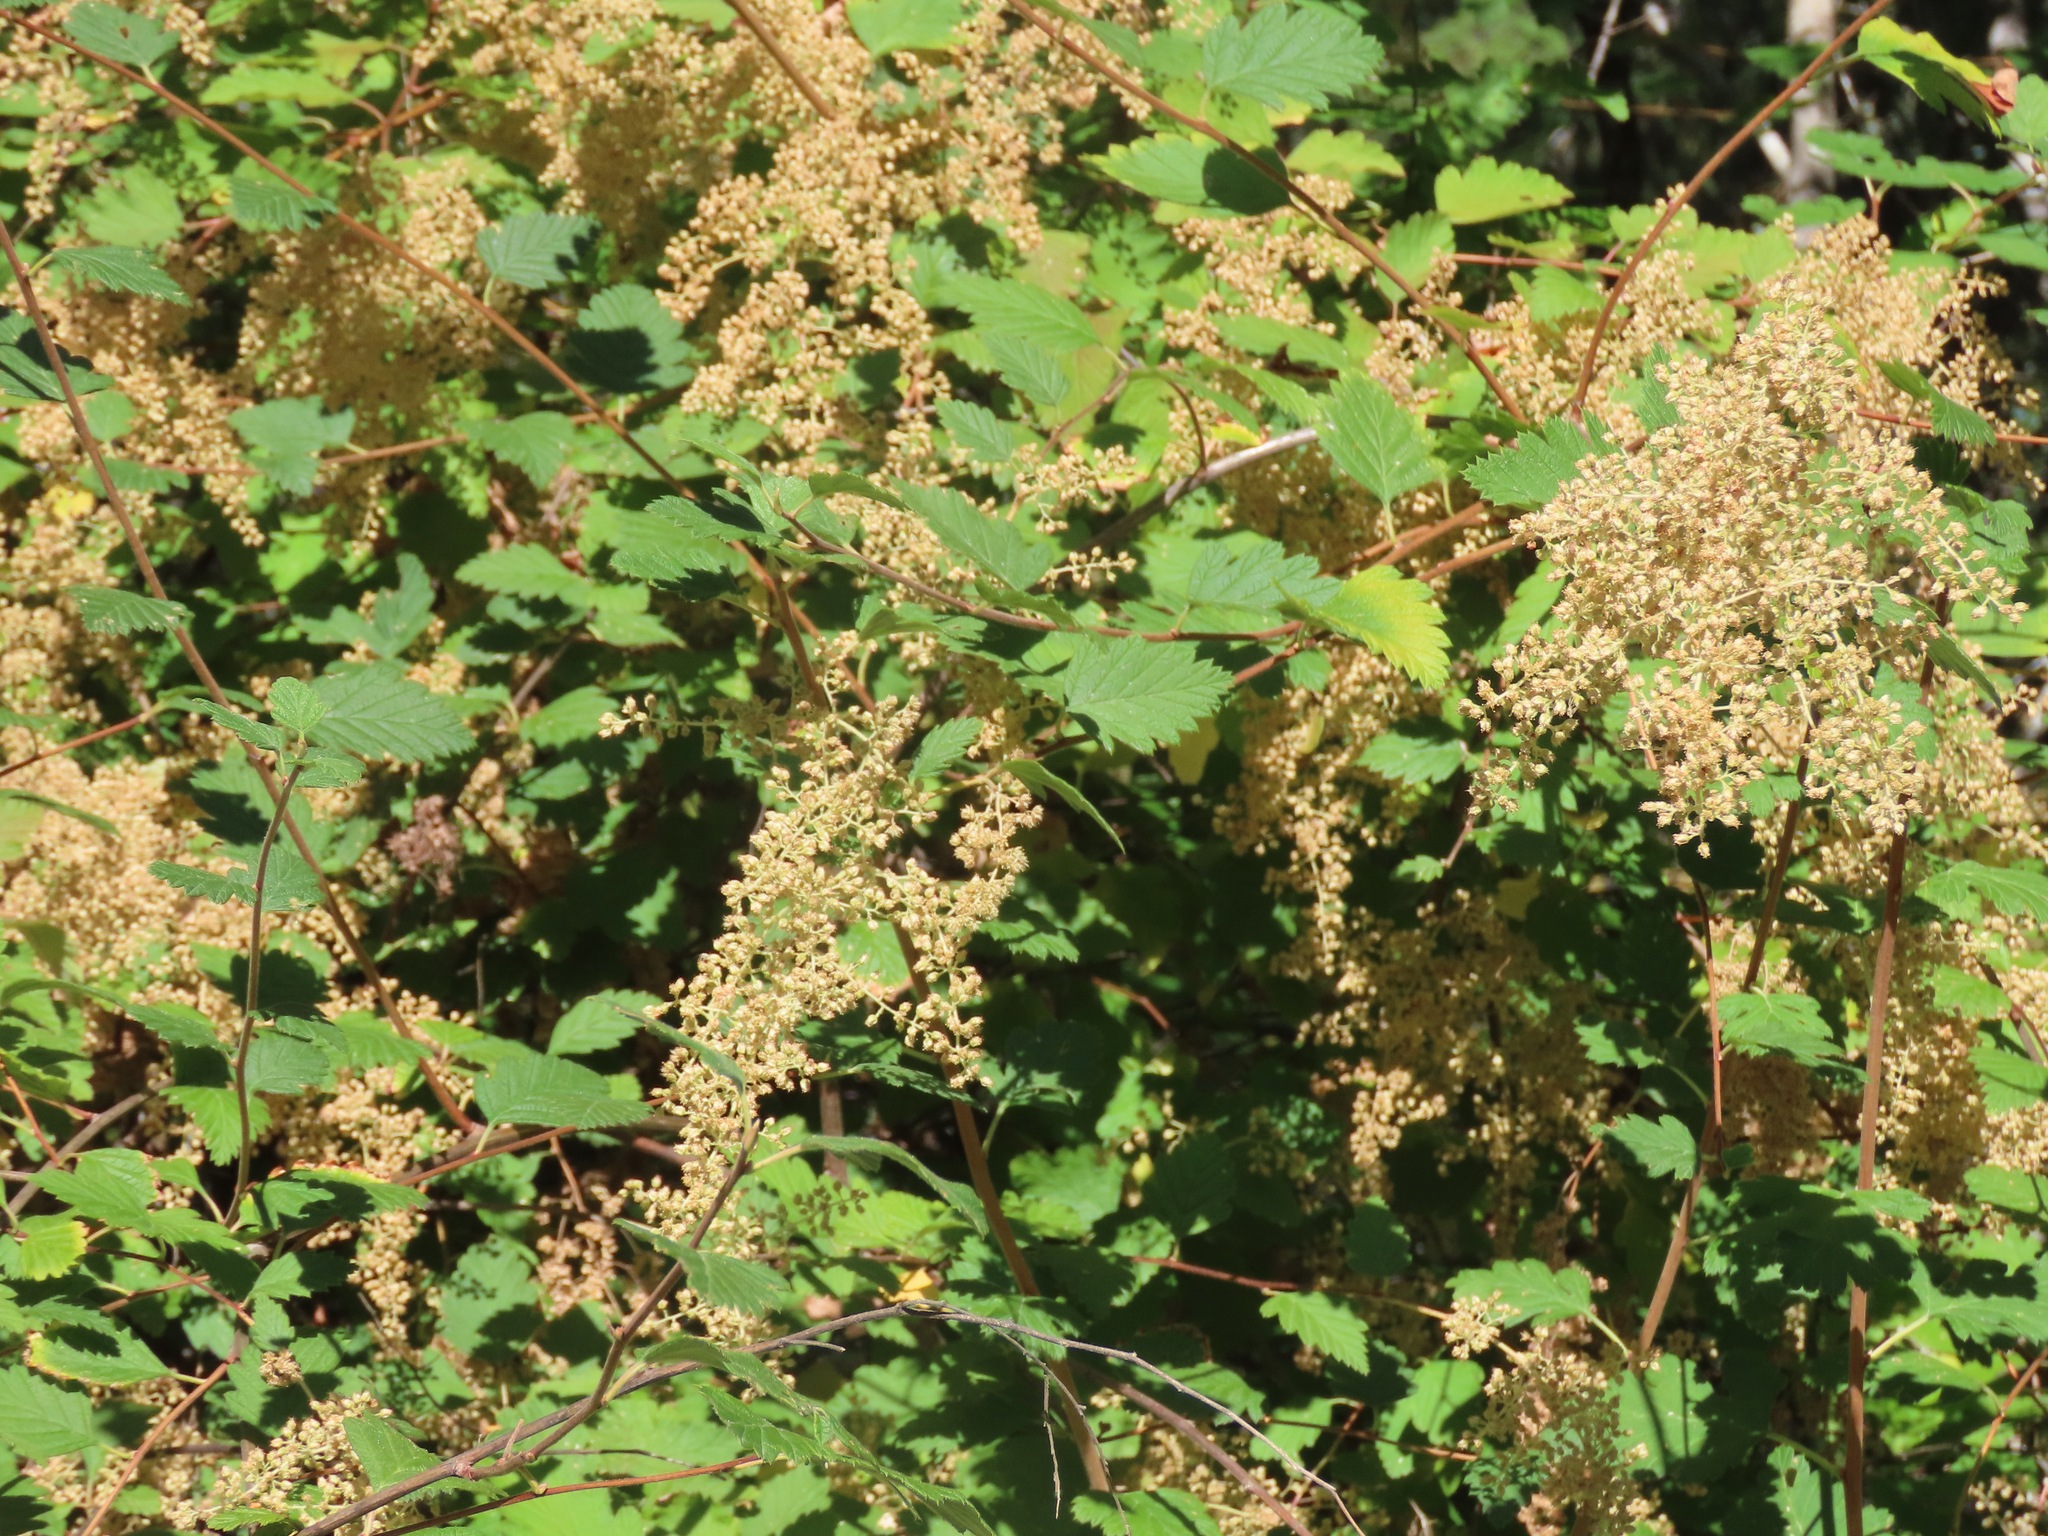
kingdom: Plantae
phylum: Tracheophyta
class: Magnoliopsida
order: Rosales
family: Rosaceae
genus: Holodiscus
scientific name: Holodiscus discolor
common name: Oceanspray
